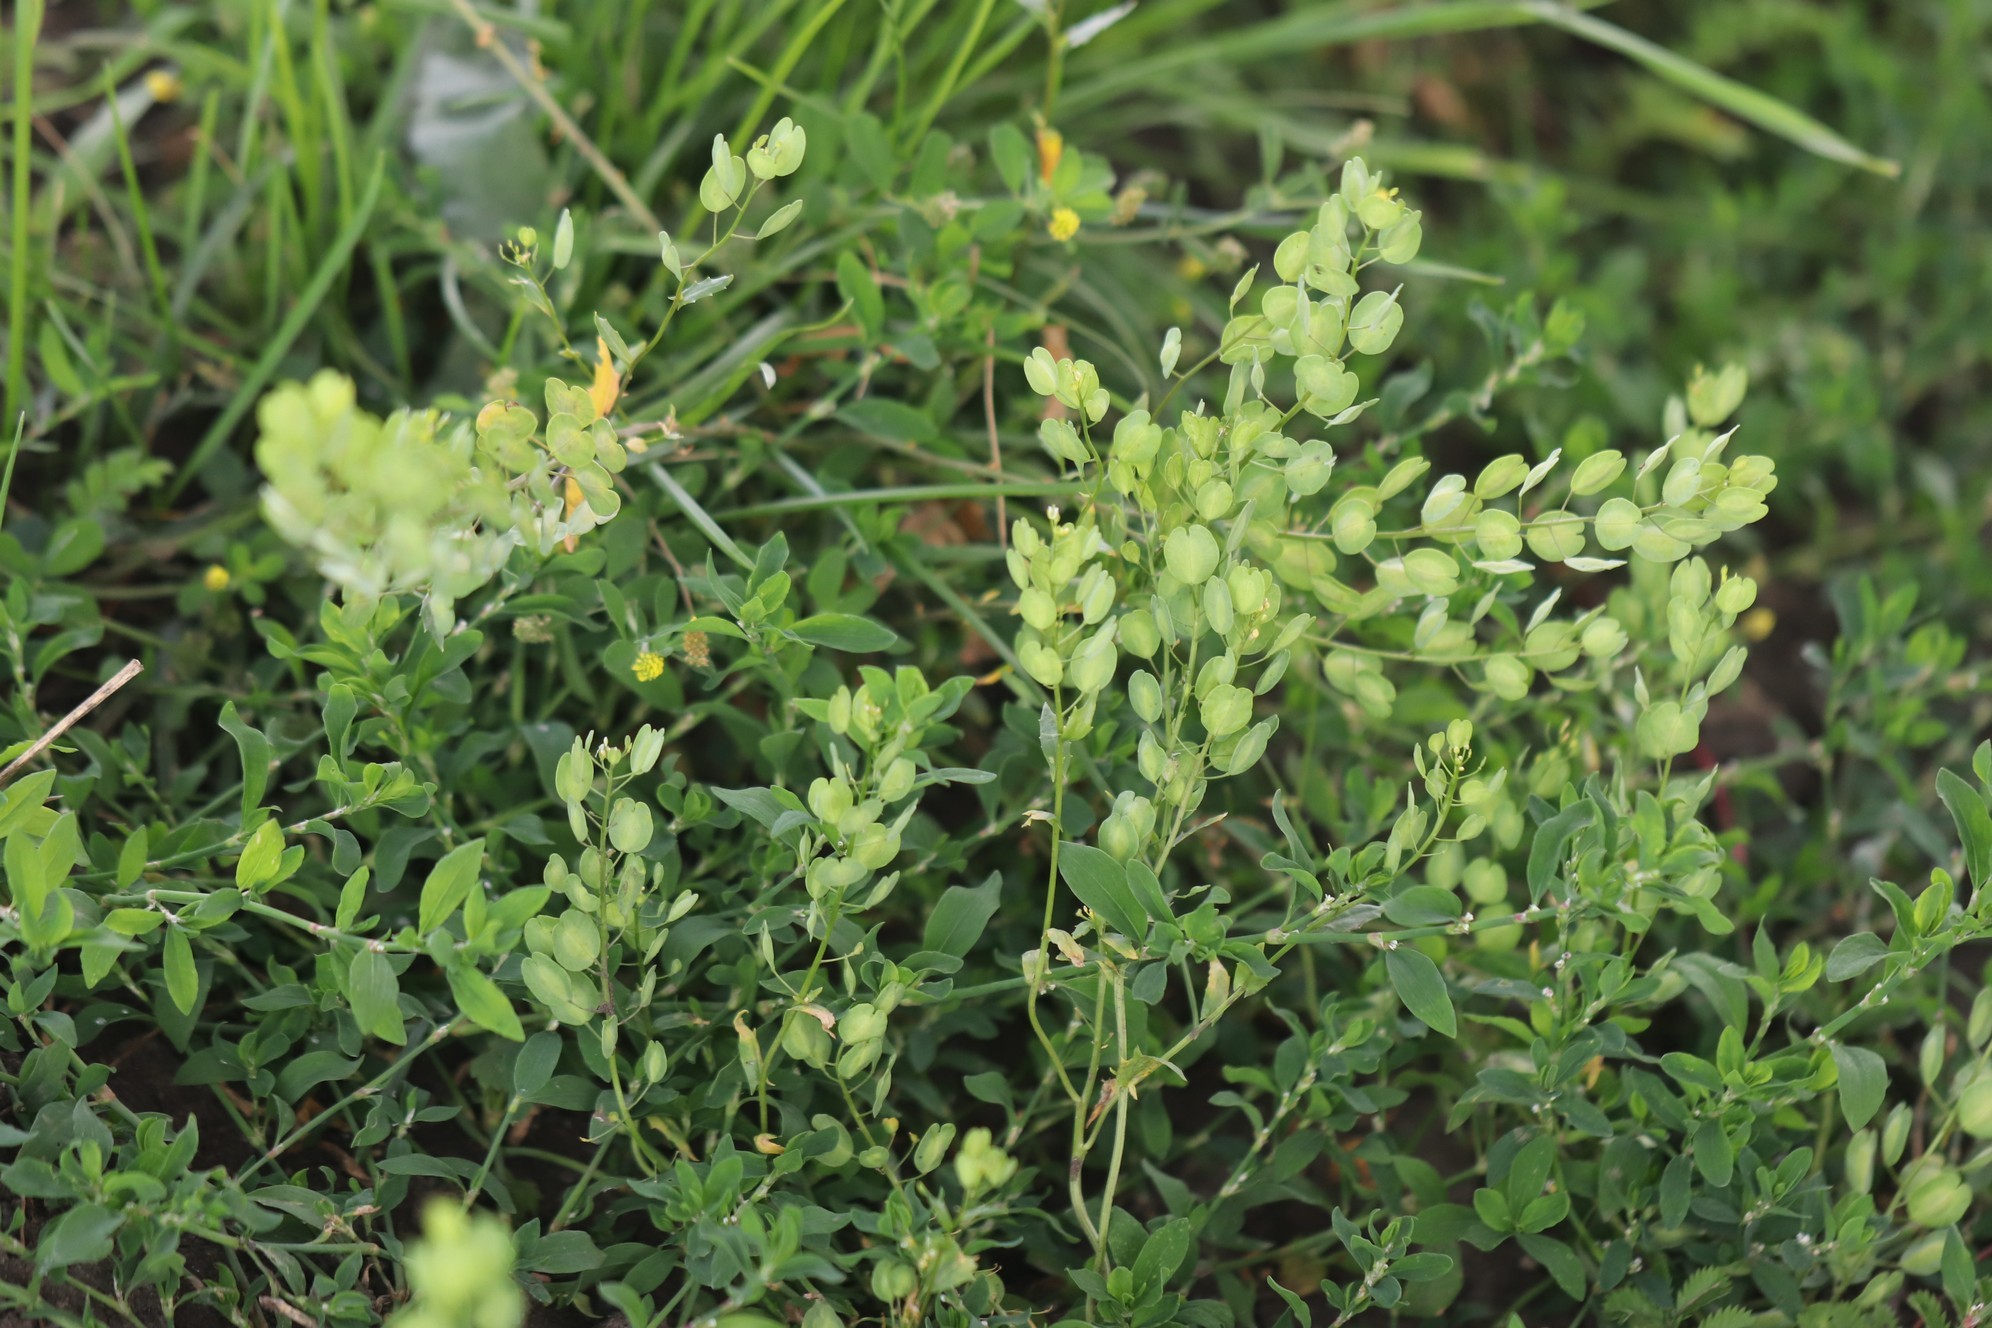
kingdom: Plantae
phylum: Tracheophyta
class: Magnoliopsida
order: Brassicales
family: Brassicaceae
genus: Thlaspi
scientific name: Thlaspi arvense
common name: Field pennycress
